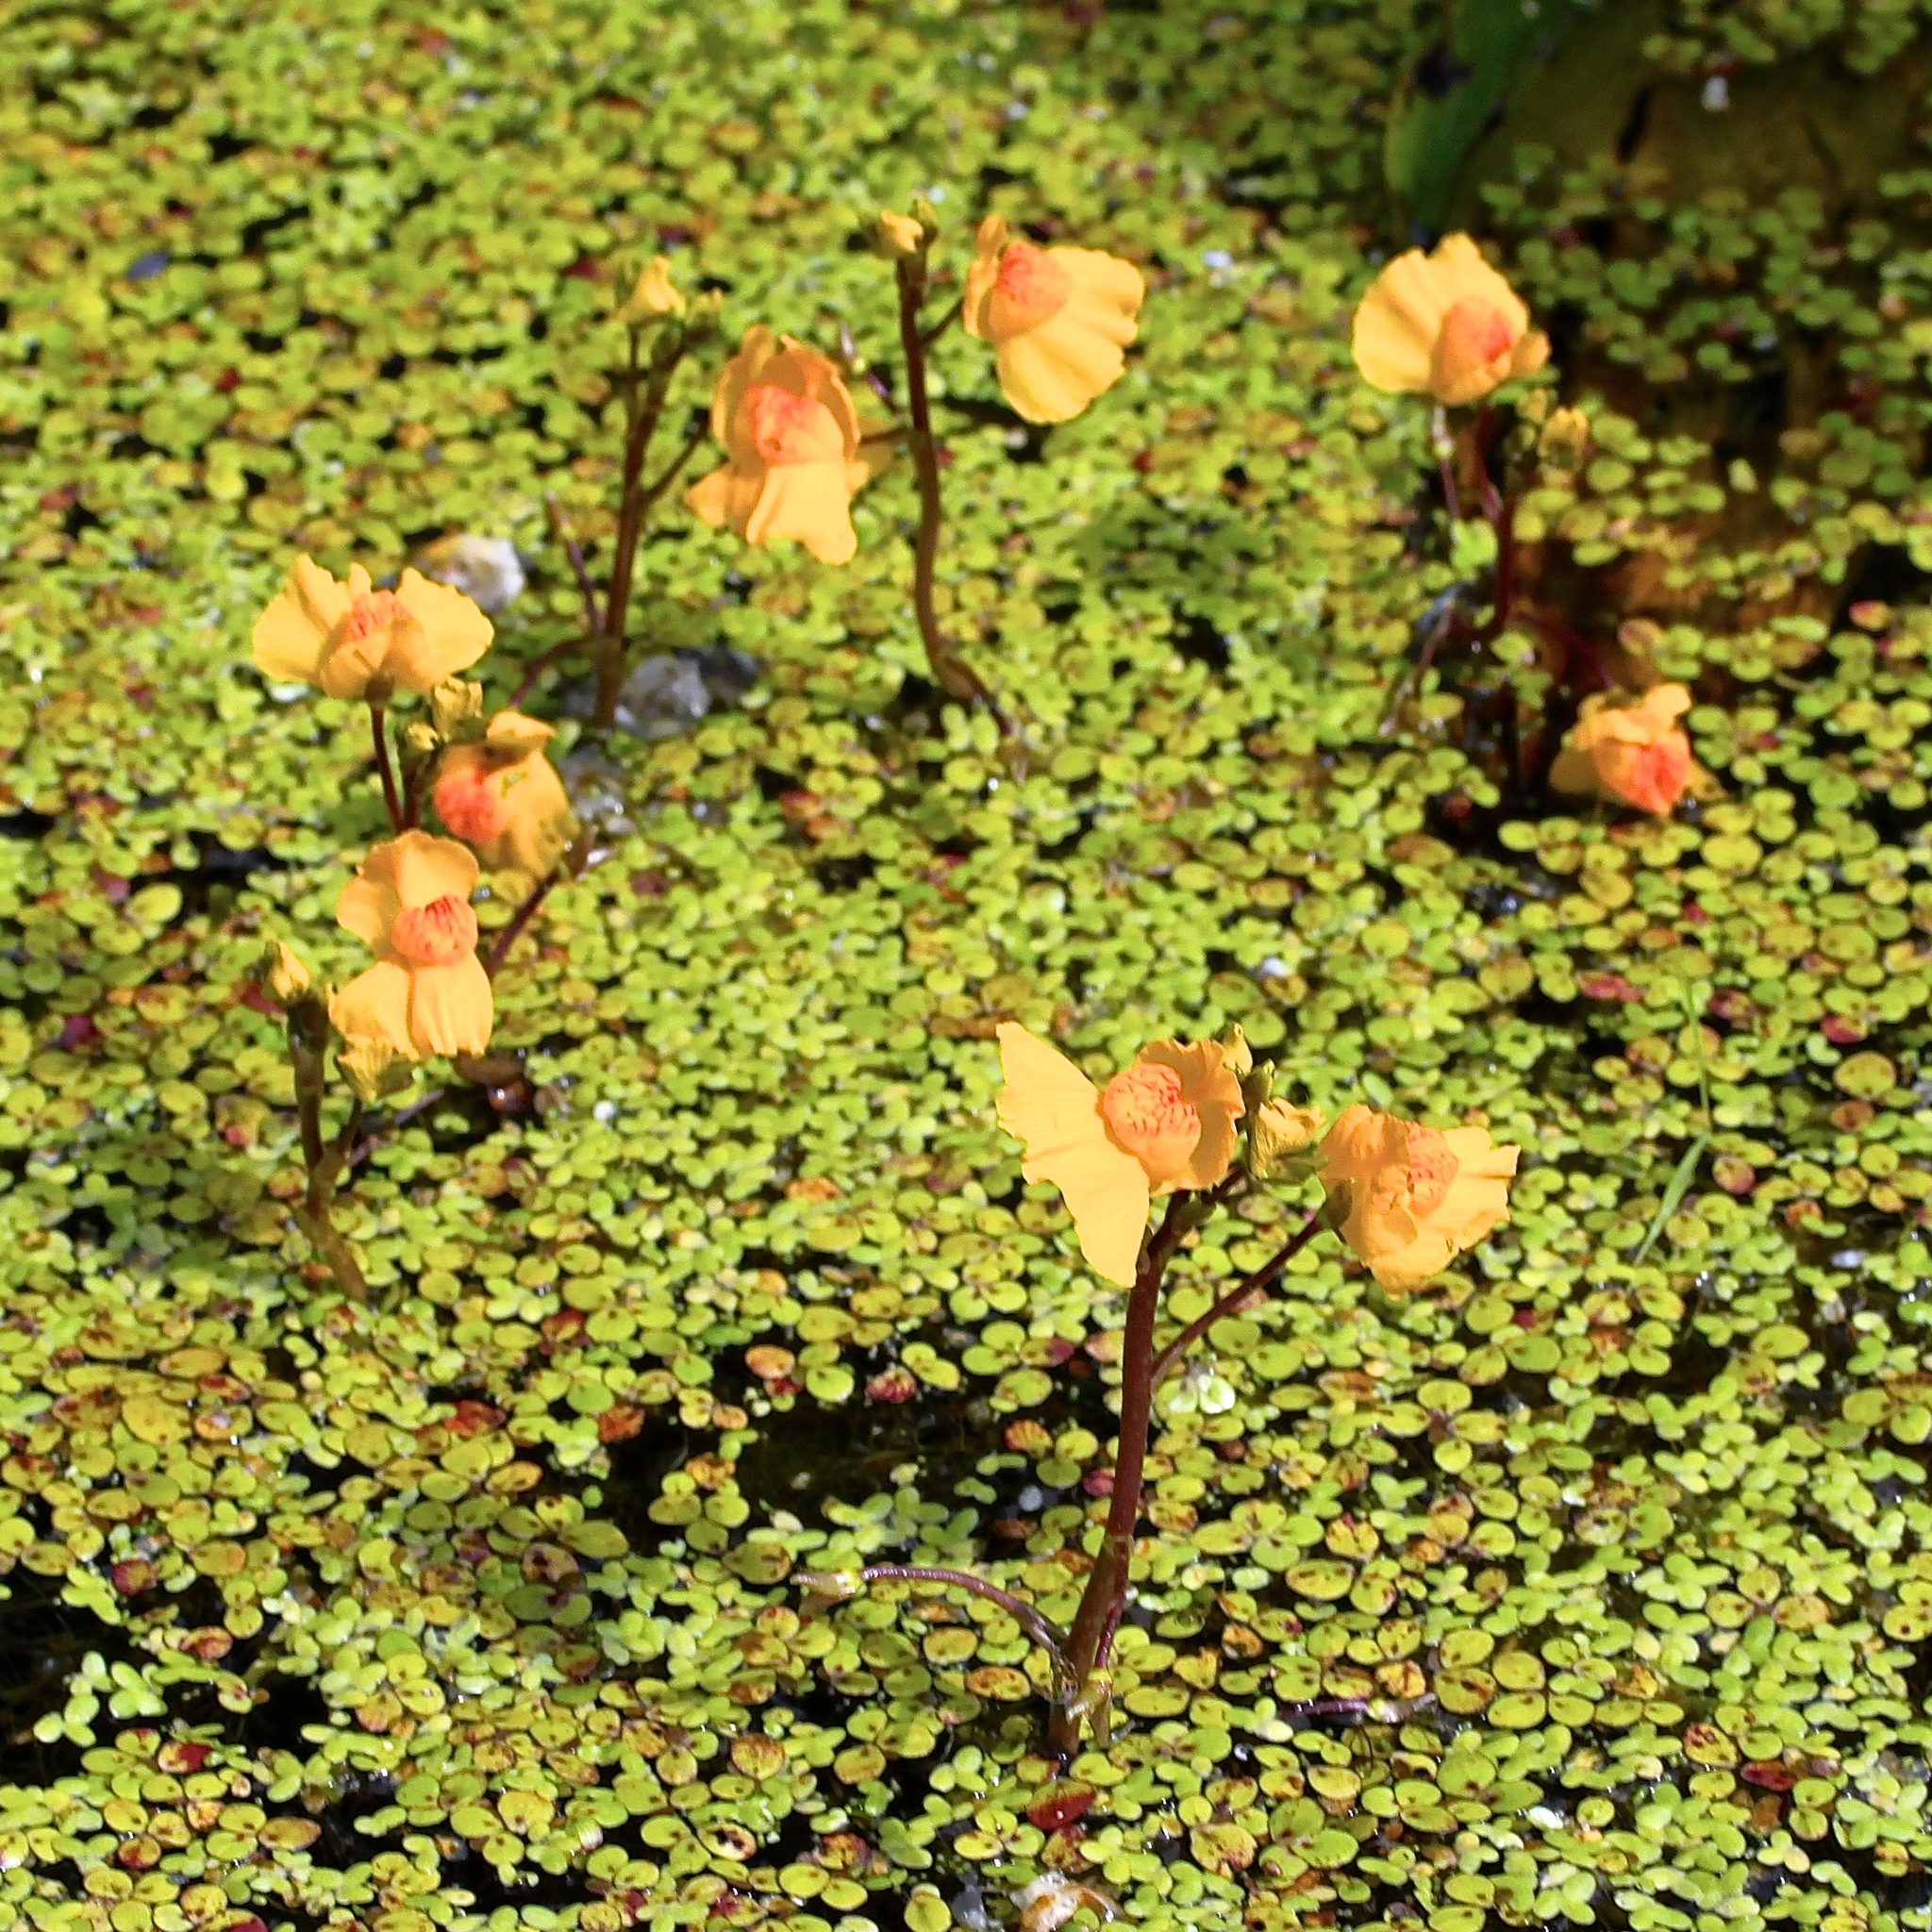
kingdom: Plantae
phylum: Tracheophyta
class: Magnoliopsida
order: Lamiales
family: Lentibulariaceae
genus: Utricularia
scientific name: Utricularia macrorhiza
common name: Common bladderwort
